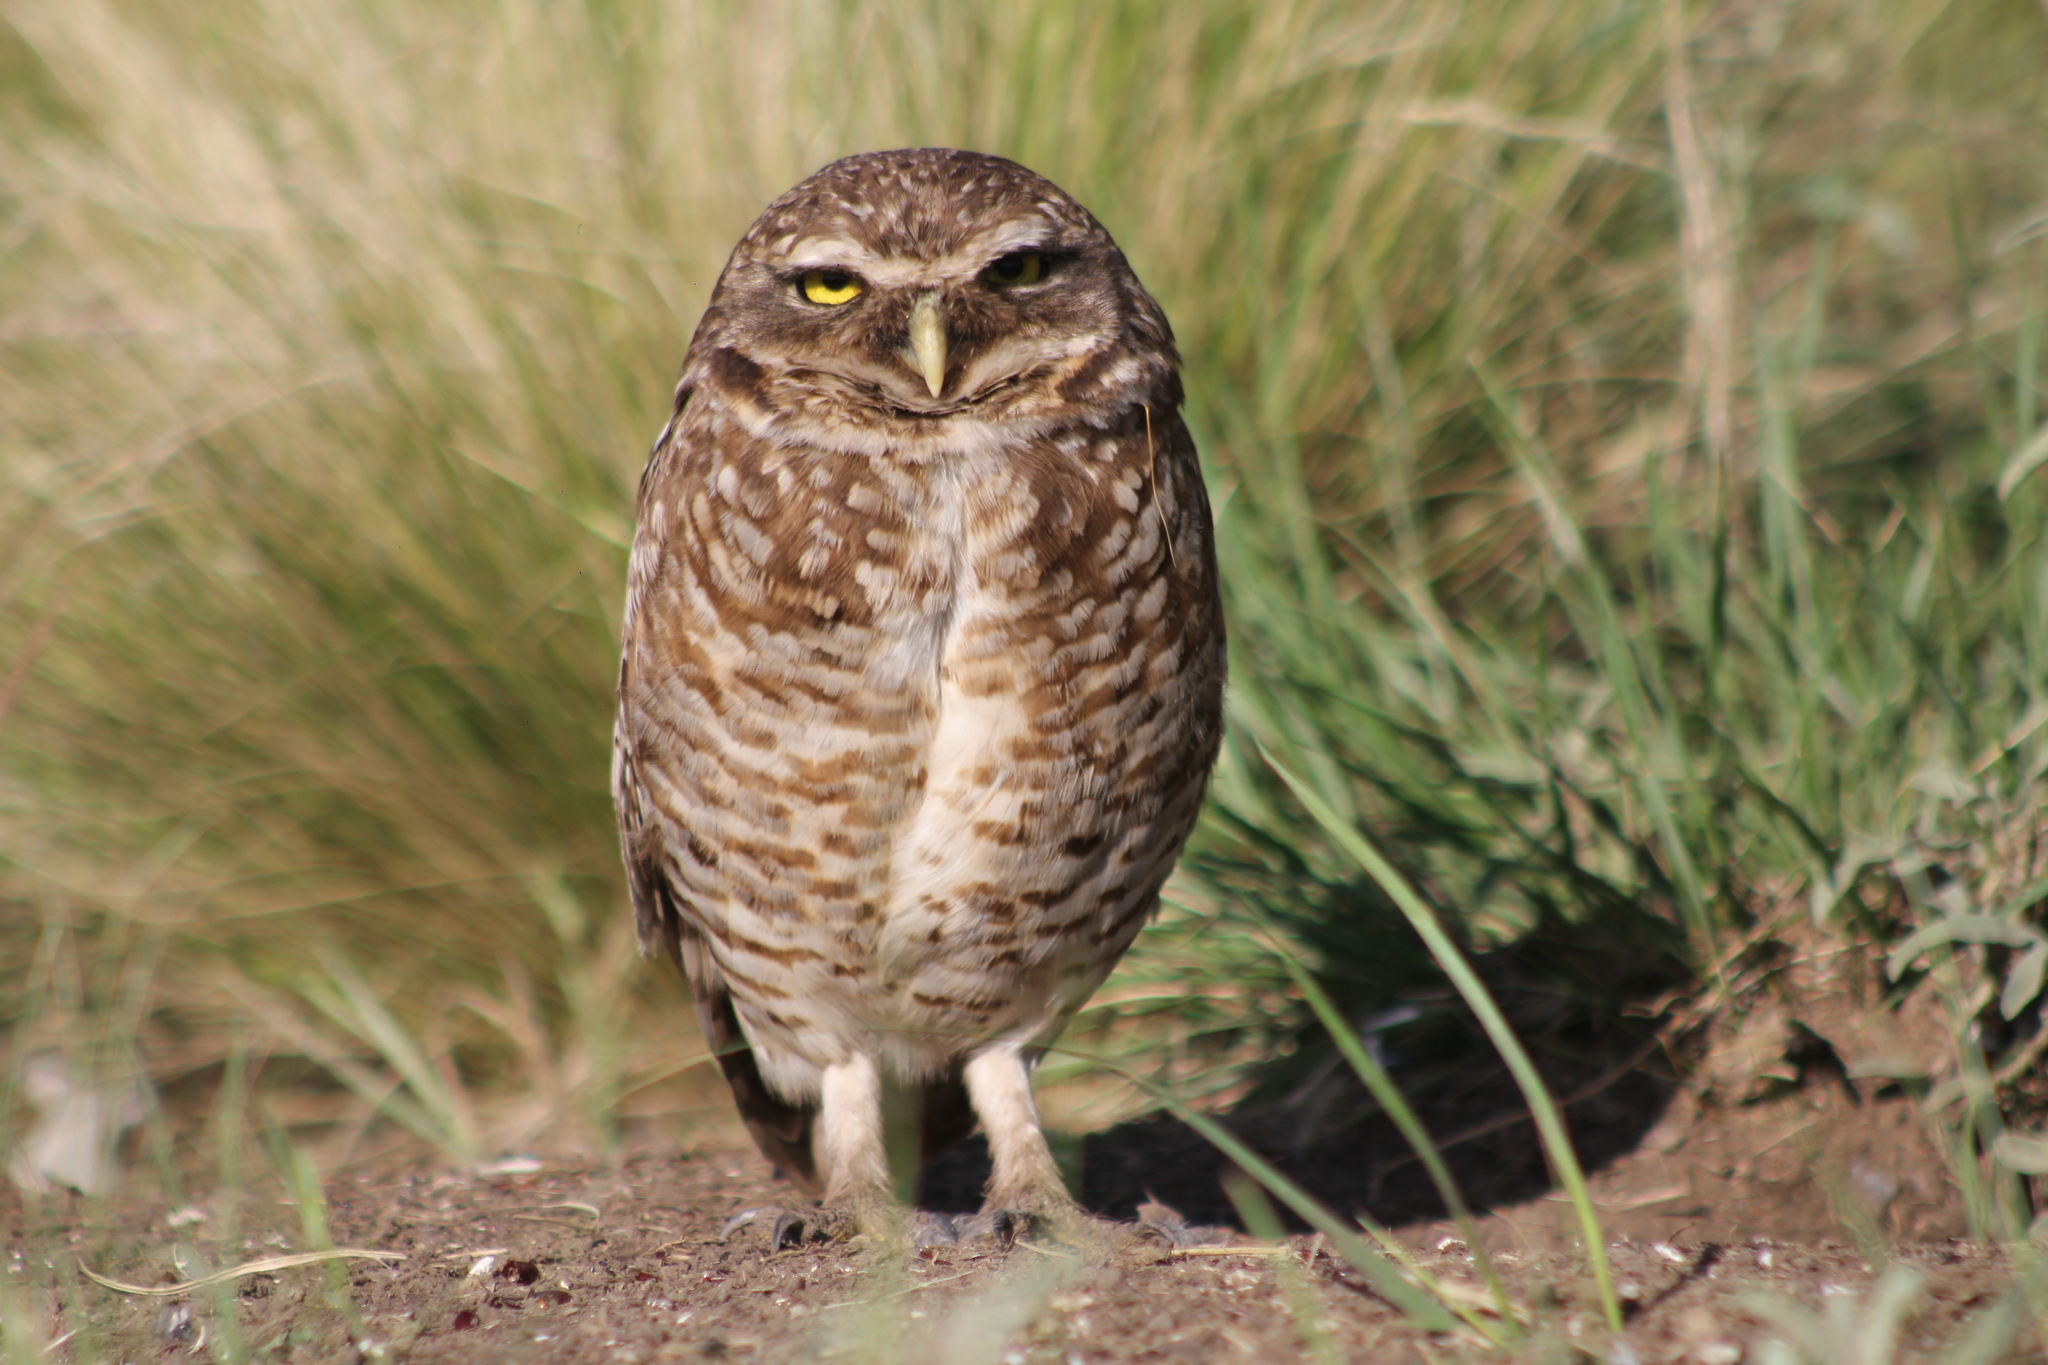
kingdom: Animalia
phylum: Chordata
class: Aves
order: Strigiformes
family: Strigidae
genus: Athene
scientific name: Athene cunicularia
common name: Burrowing owl
